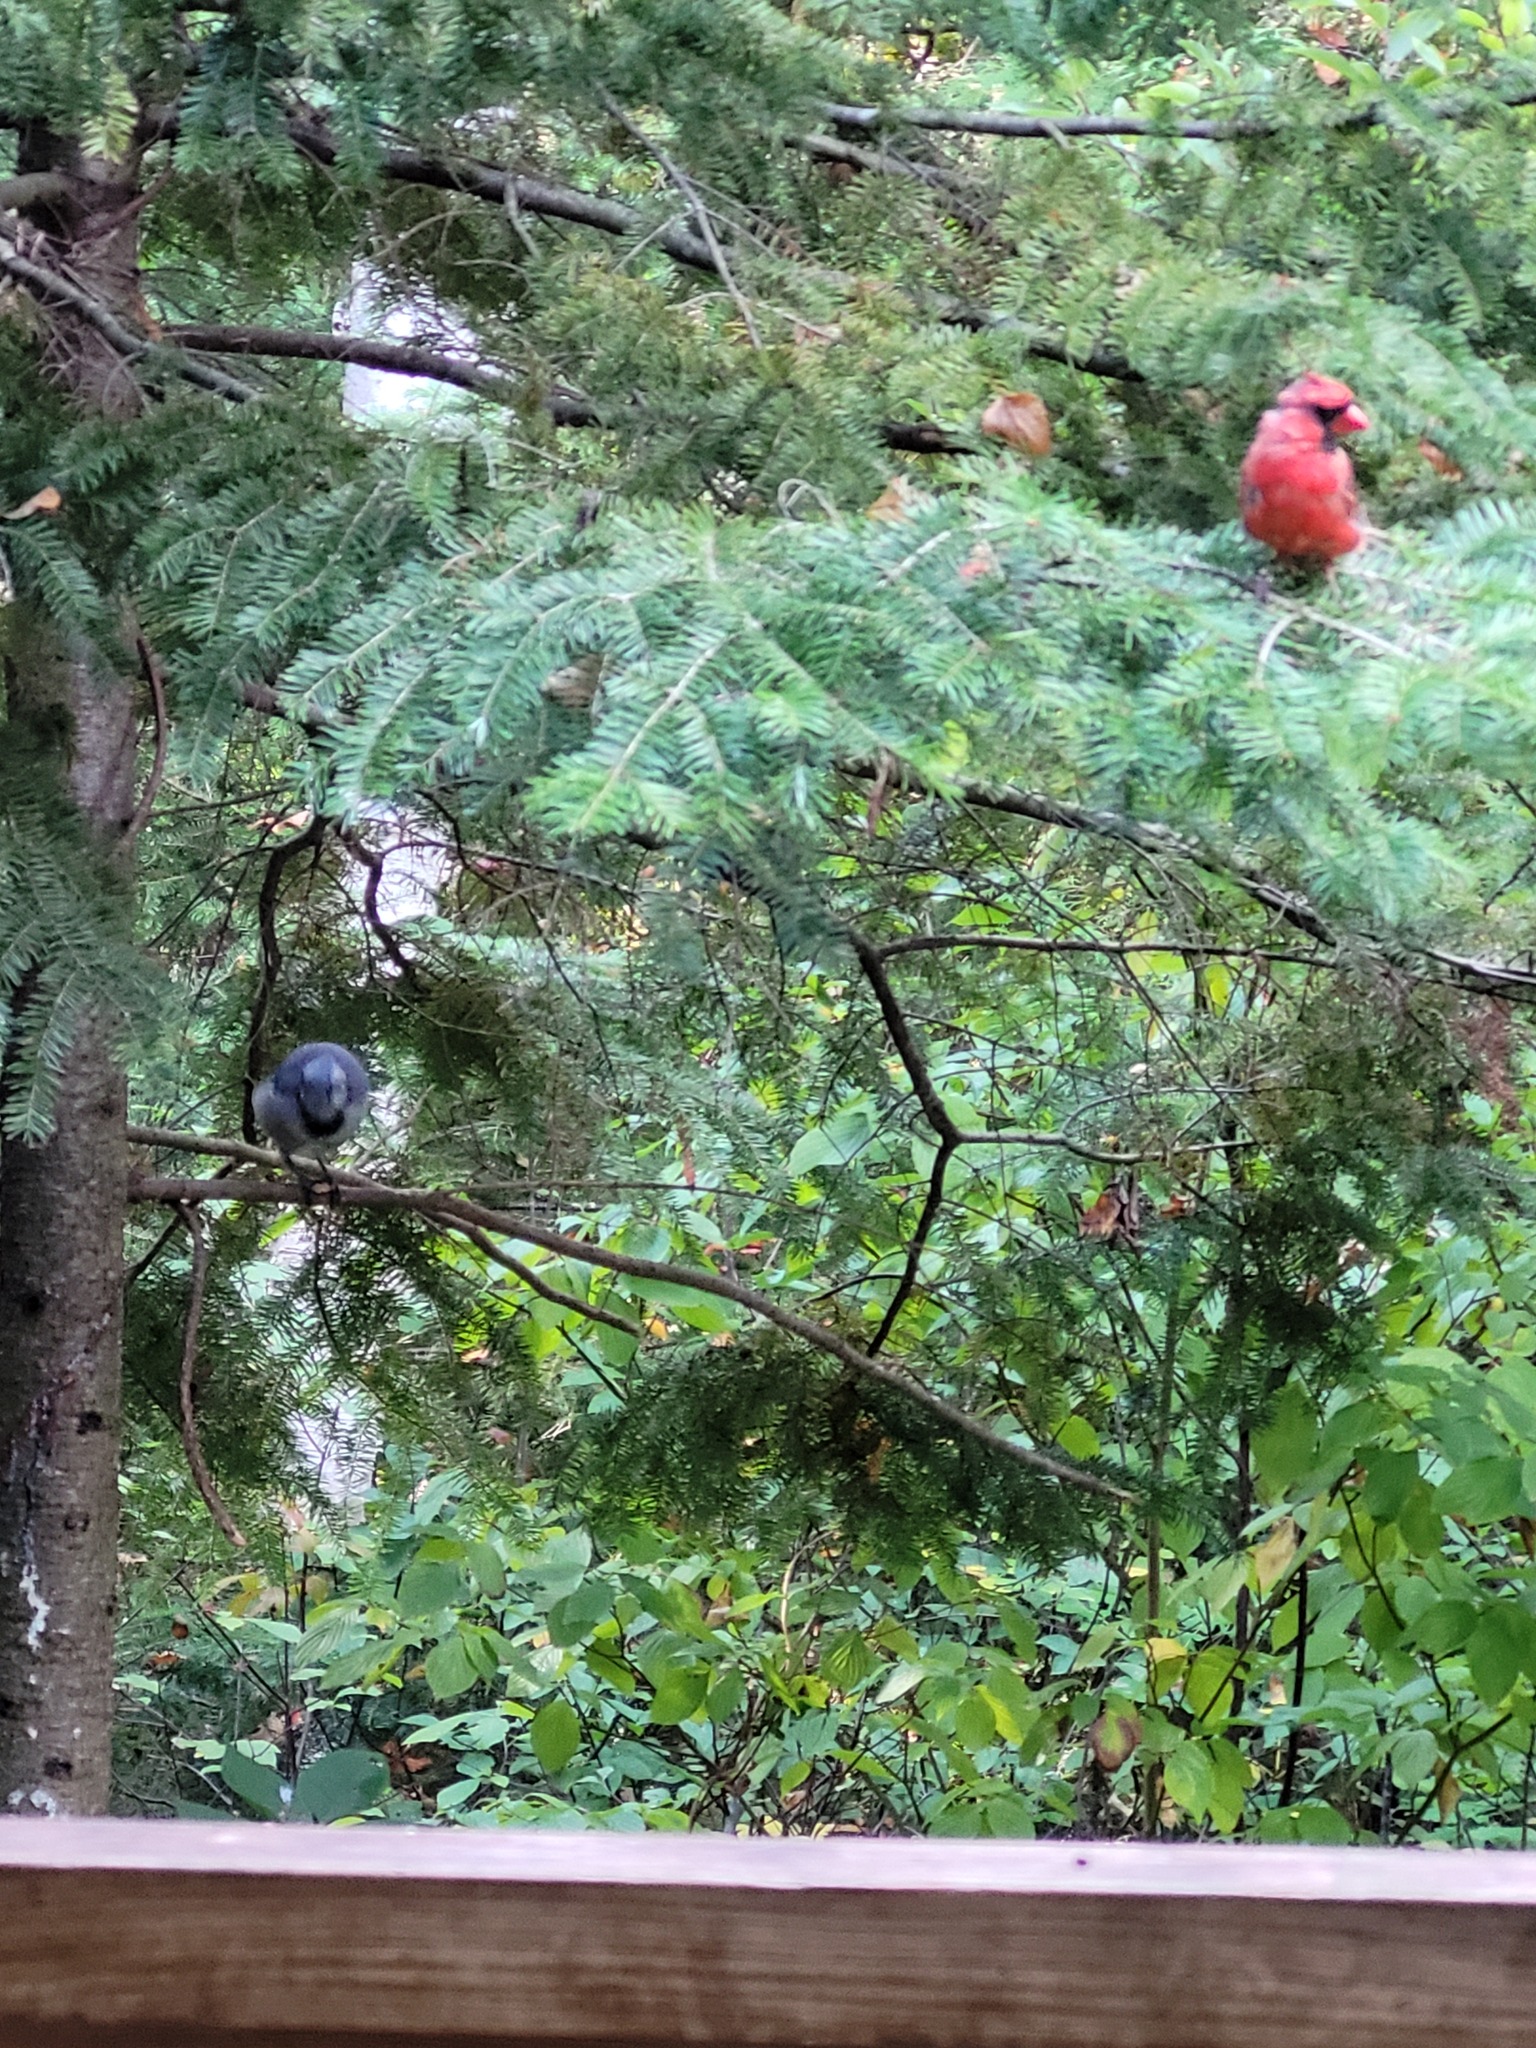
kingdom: Animalia
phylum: Chordata
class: Aves
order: Passeriformes
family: Cardinalidae
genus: Cardinalis
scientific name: Cardinalis cardinalis
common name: Northern cardinal
